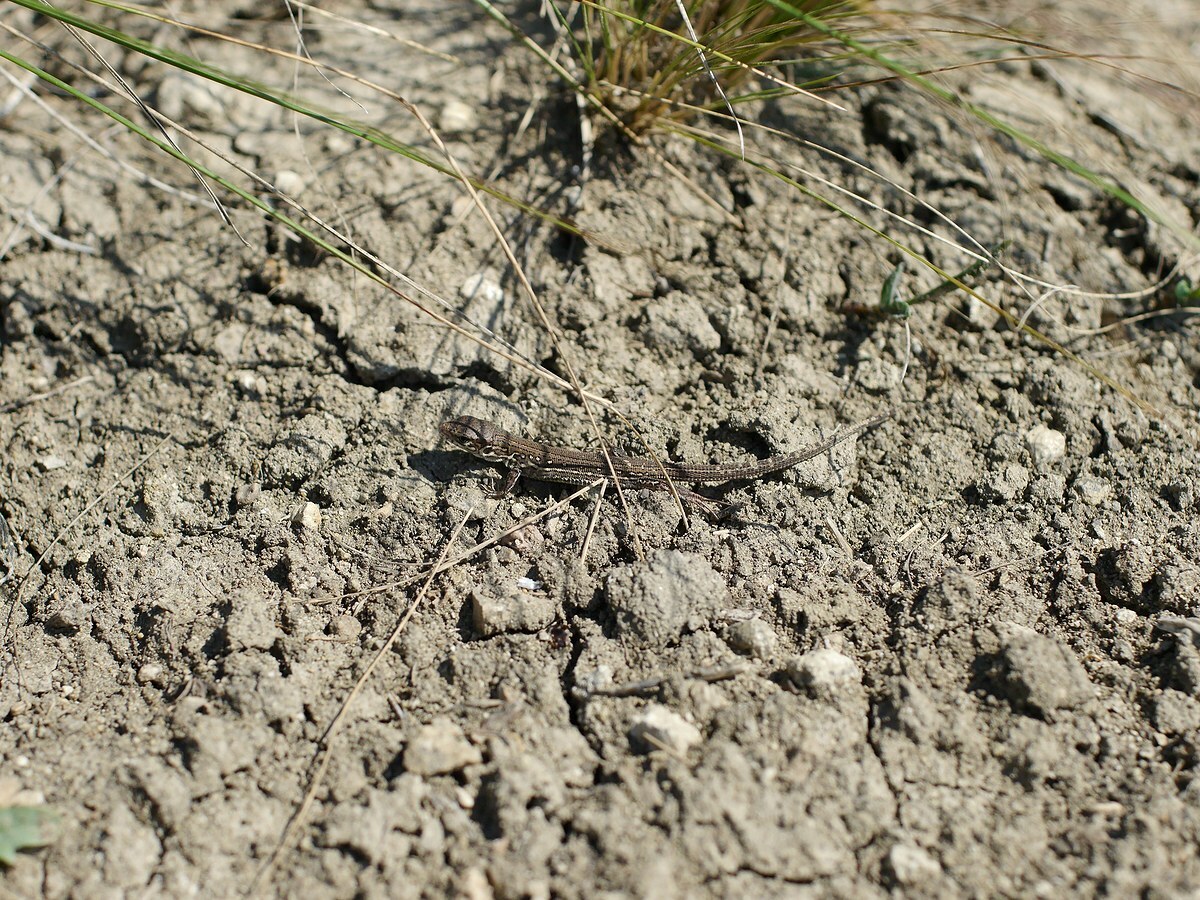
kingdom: Animalia
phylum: Chordata
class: Squamata
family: Lacertidae
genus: Lacerta
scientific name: Lacerta agilis
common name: Sand lizard
